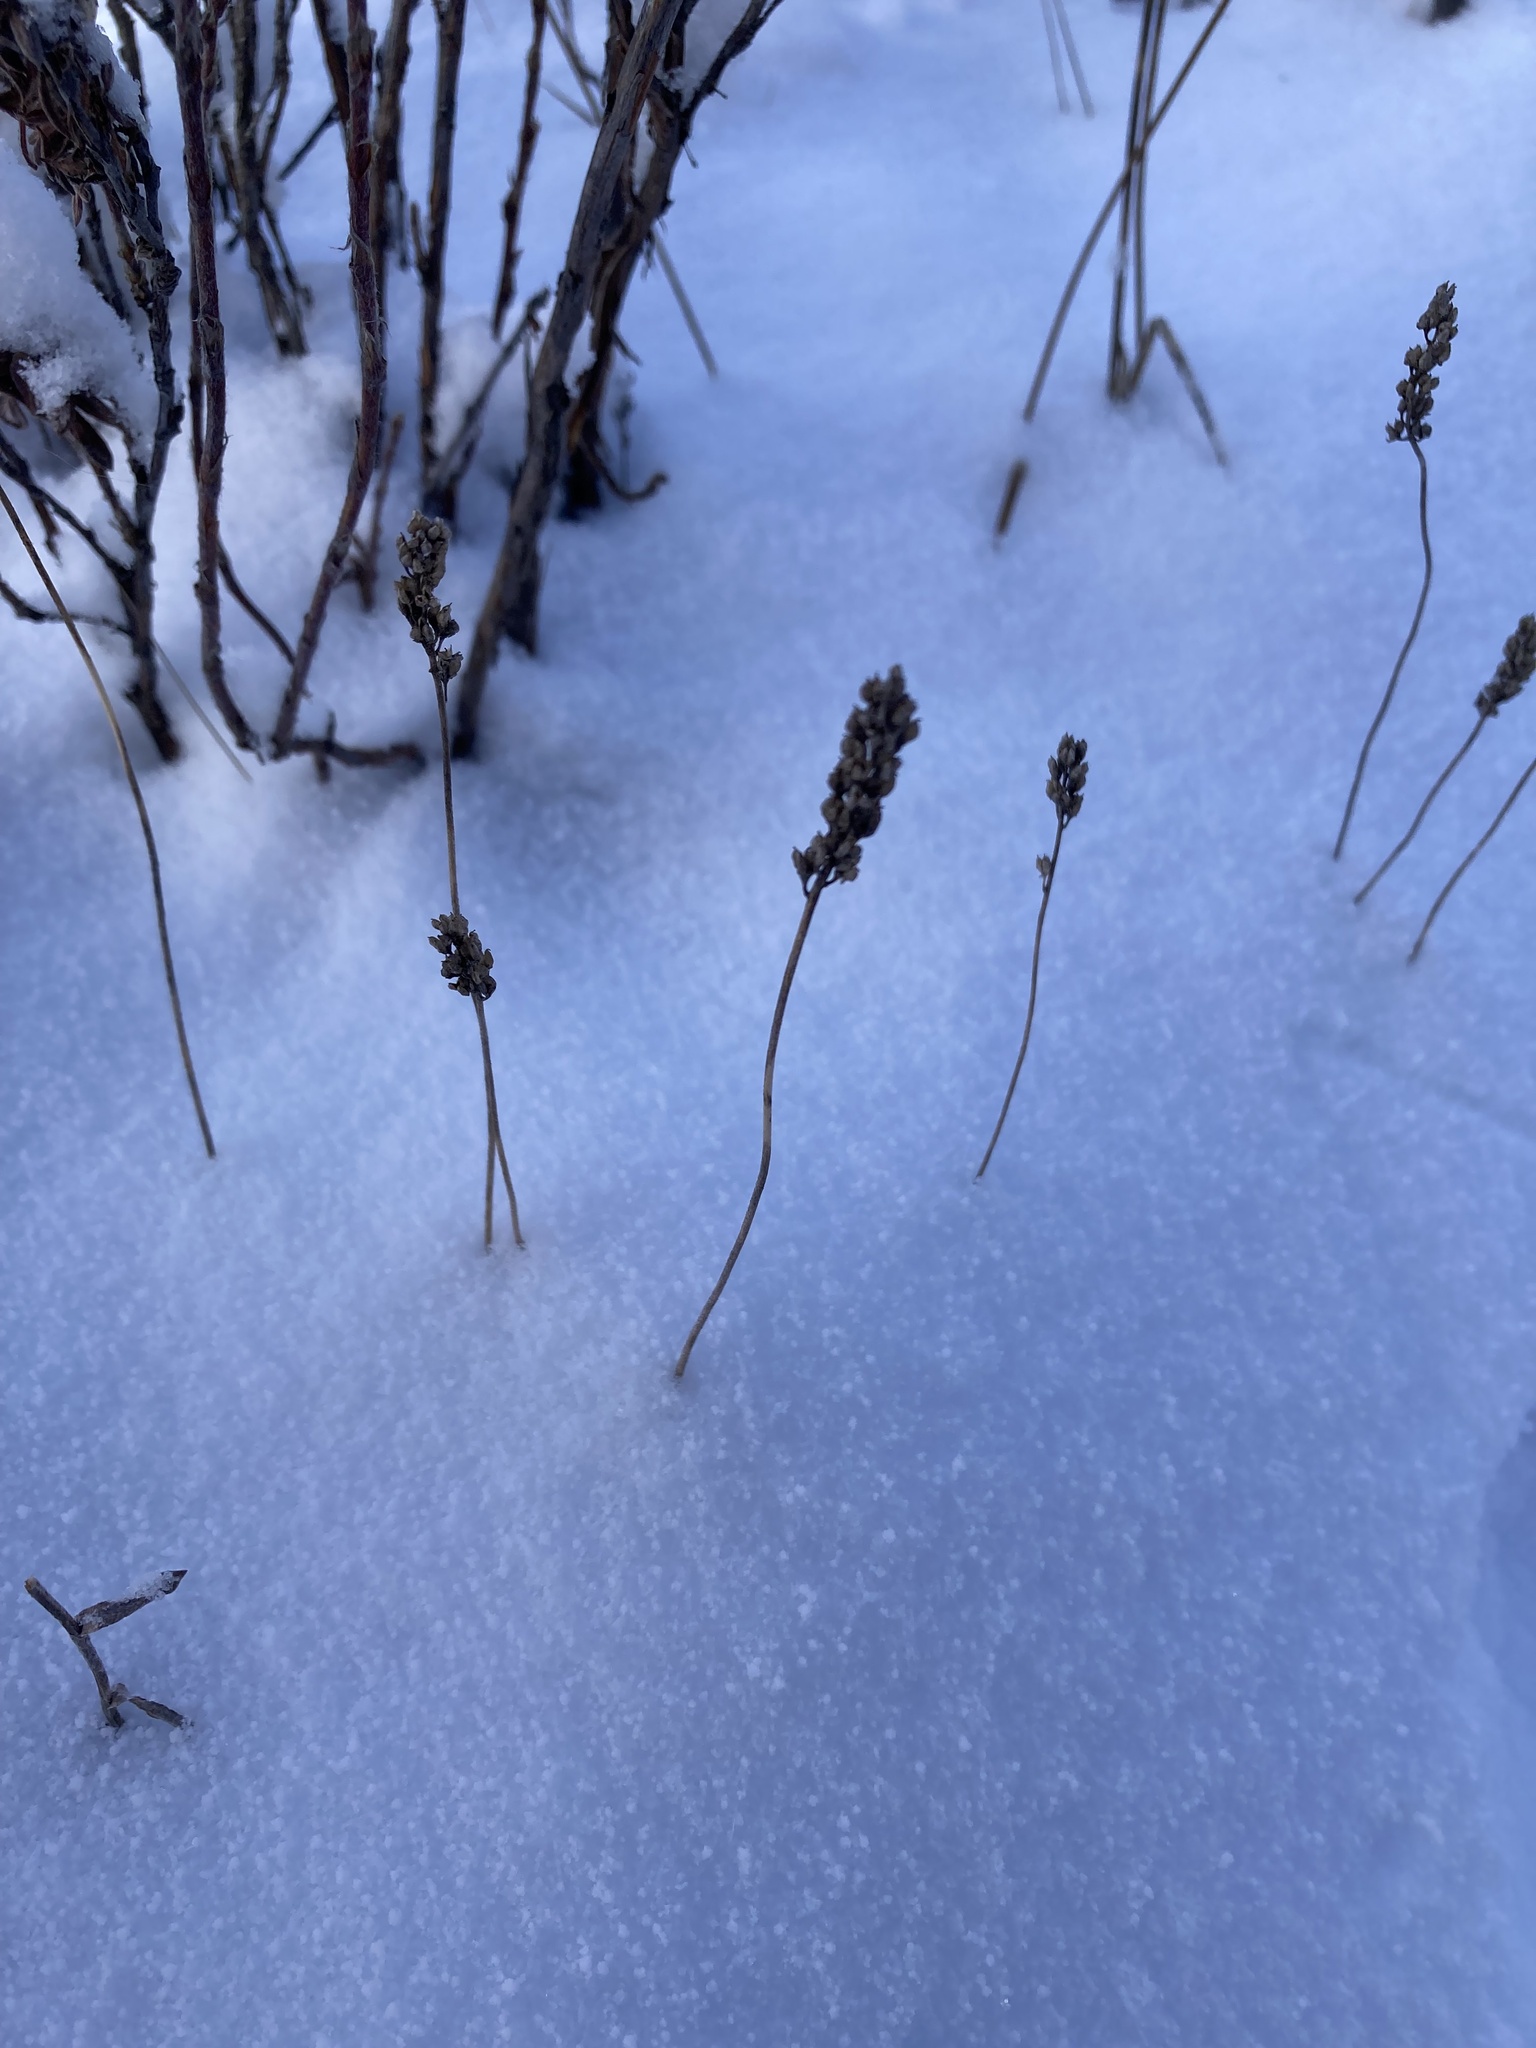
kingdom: Plantae
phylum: Tracheophyta
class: Liliopsida
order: Alismatales
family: Tofieldiaceae
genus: Triantha
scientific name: Triantha glutinosa
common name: Glutinous tofieldia
